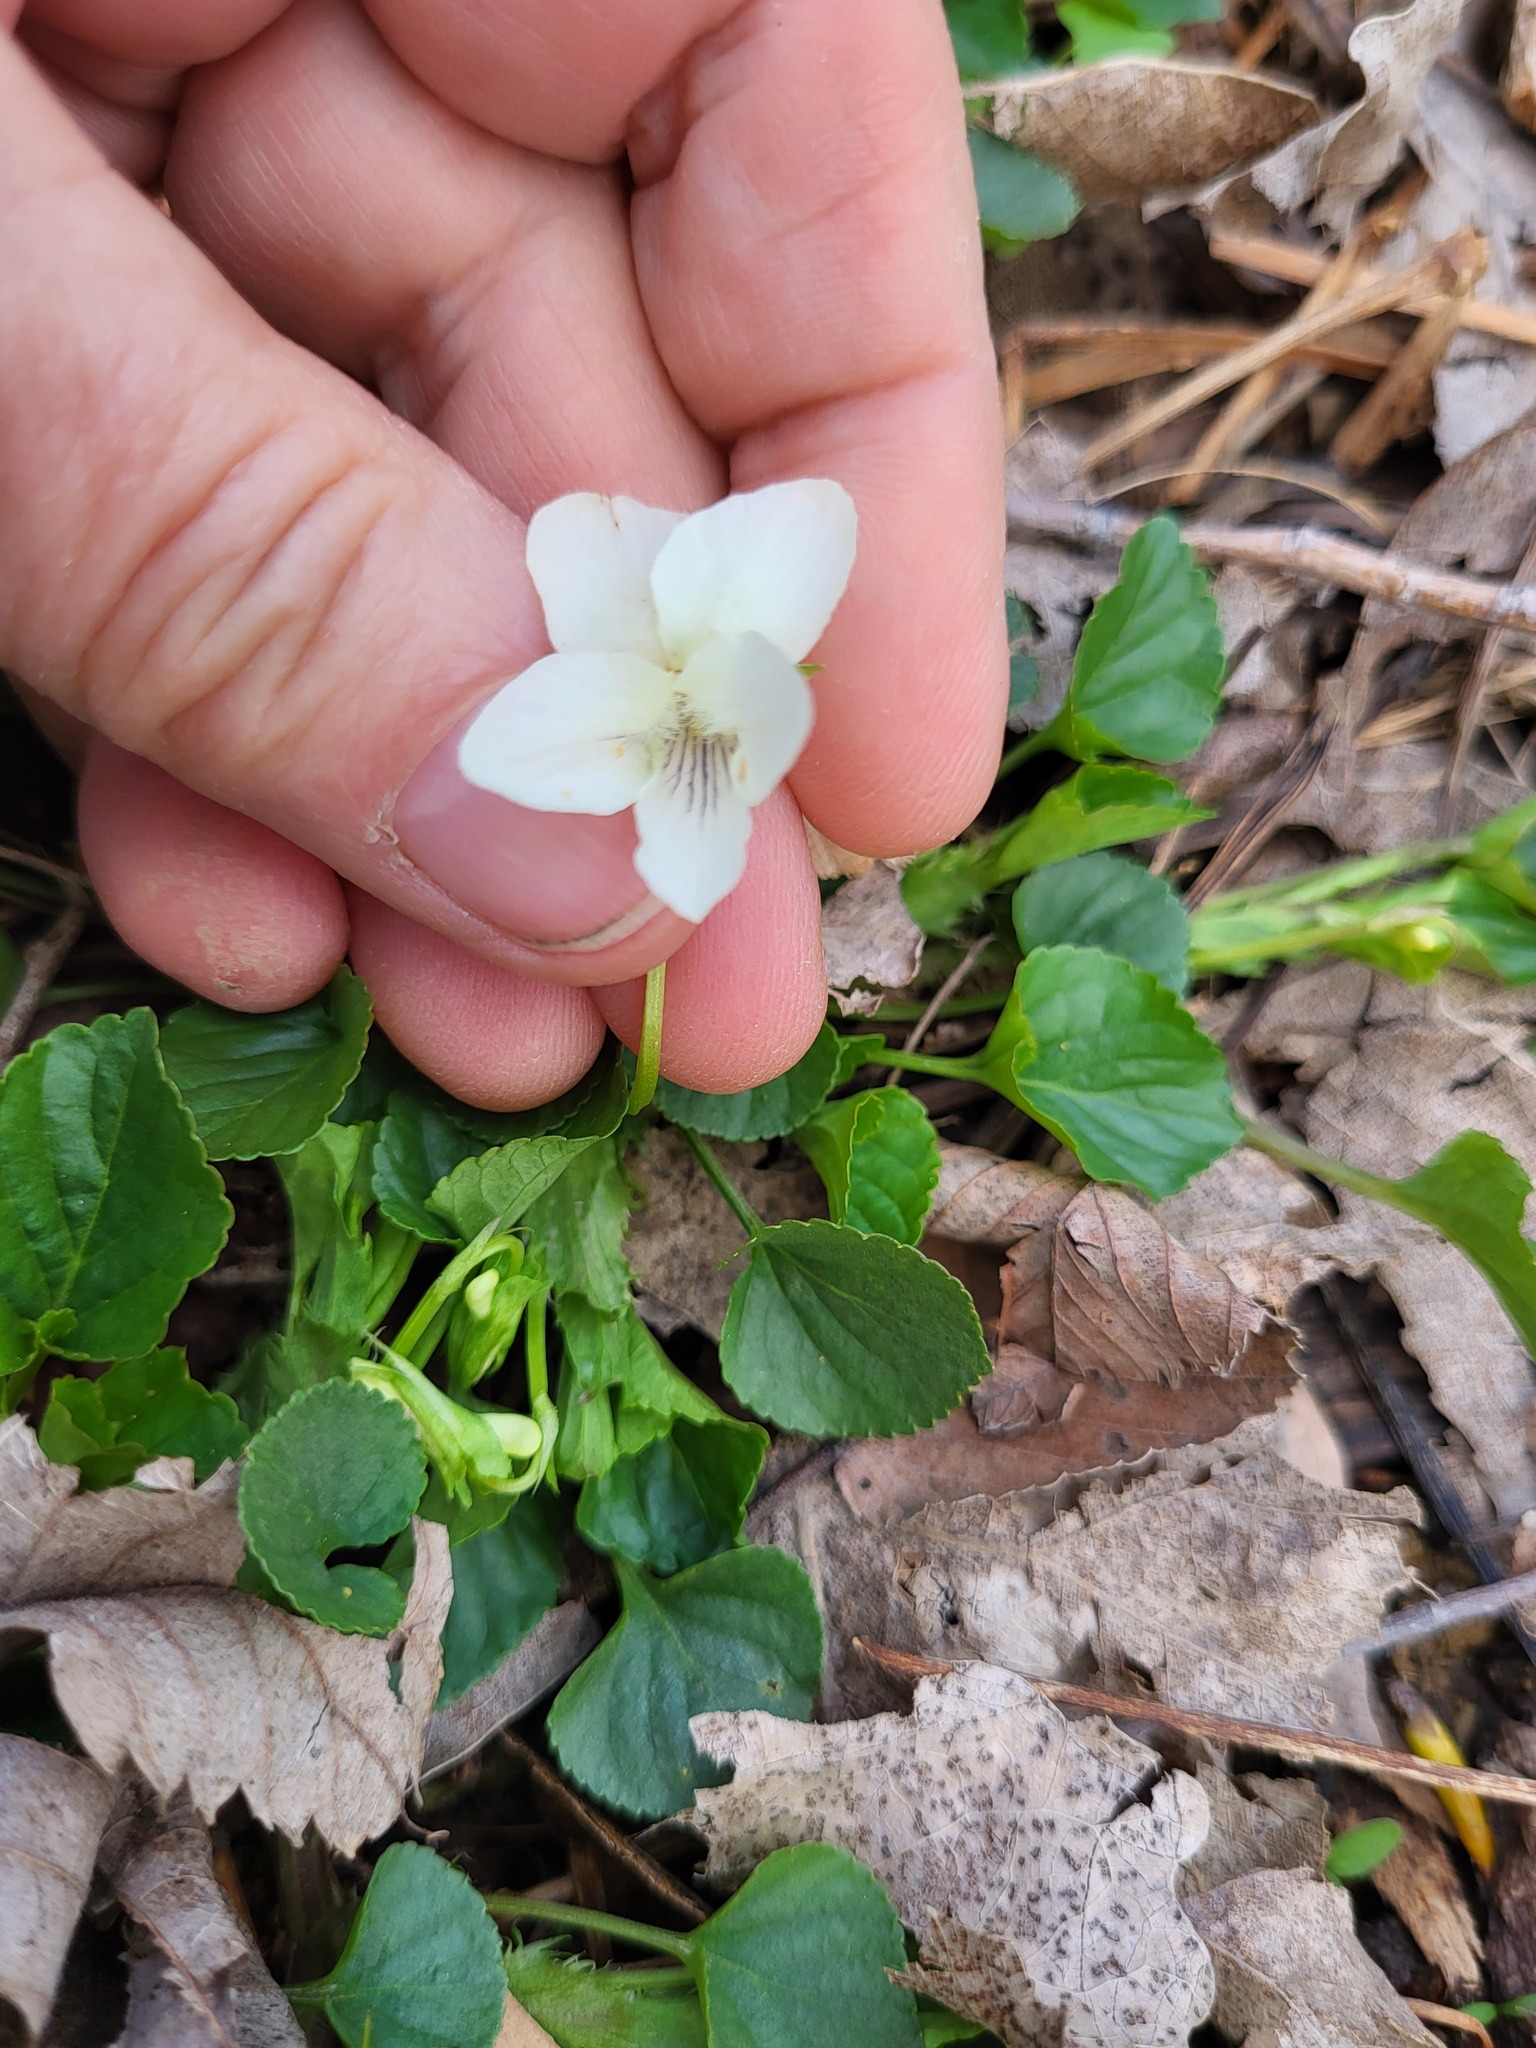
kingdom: Plantae
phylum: Tracheophyta
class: Magnoliopsida
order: Malpighiales
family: Violaceae
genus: Viola
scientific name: Viola striata
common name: Cream violet
